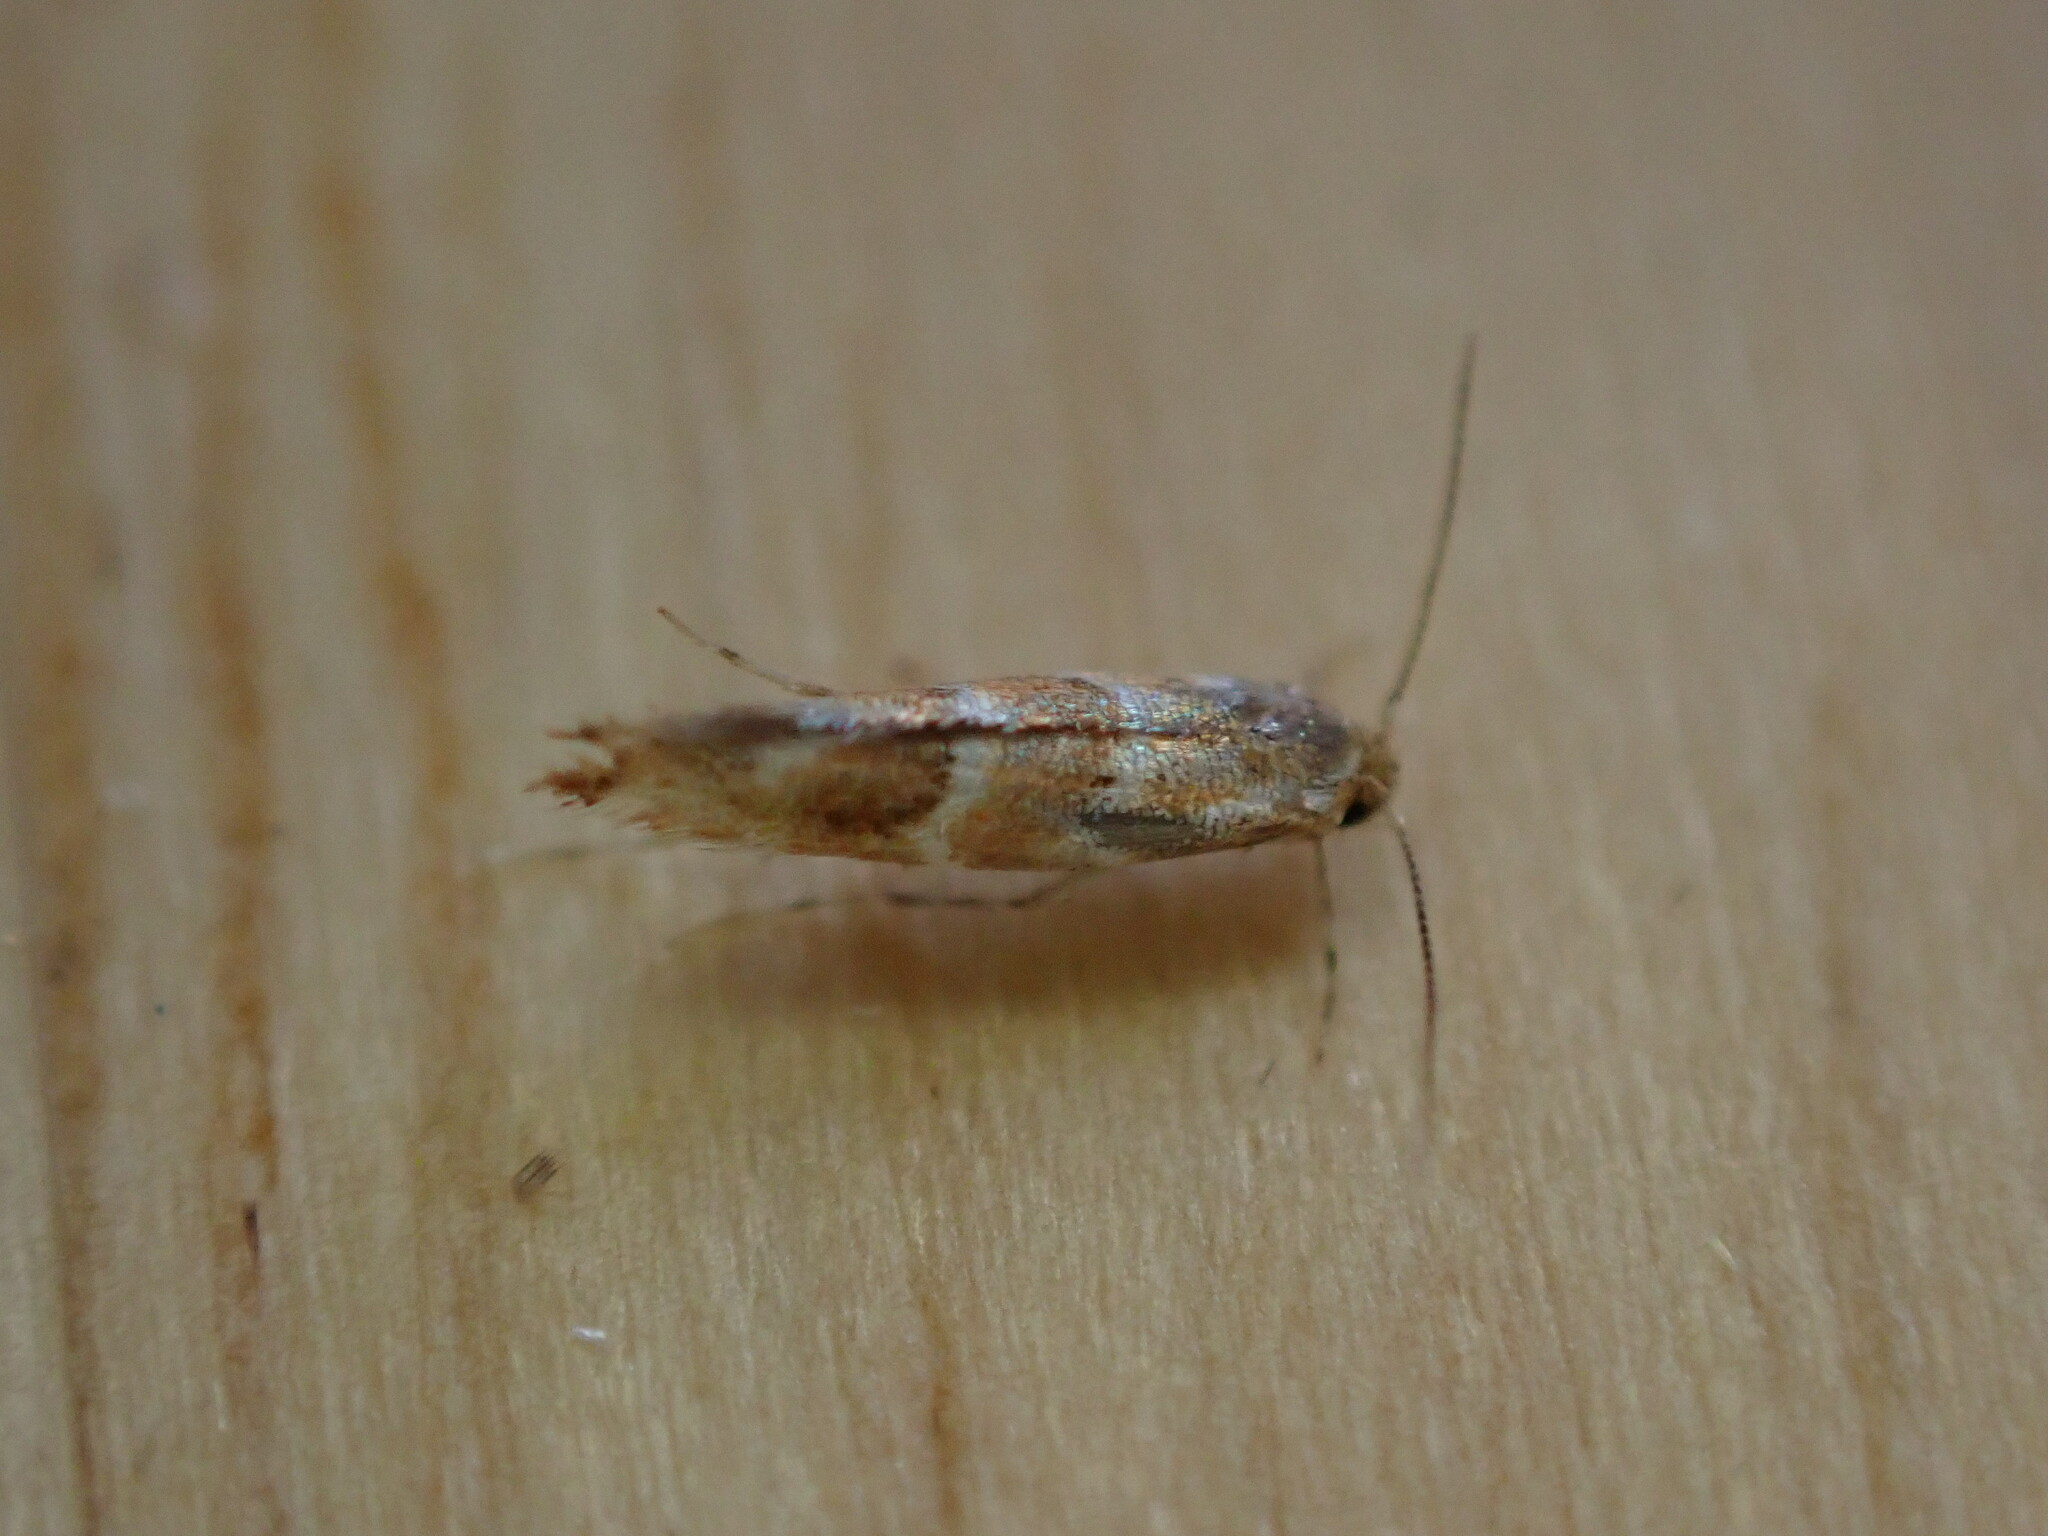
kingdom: Animalia
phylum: Arthropoda
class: Insecta
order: Lepidoptera
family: Gracillariidae
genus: Cameraria
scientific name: Cameraria ohridella
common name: Horse-chestnut leaf-miner
